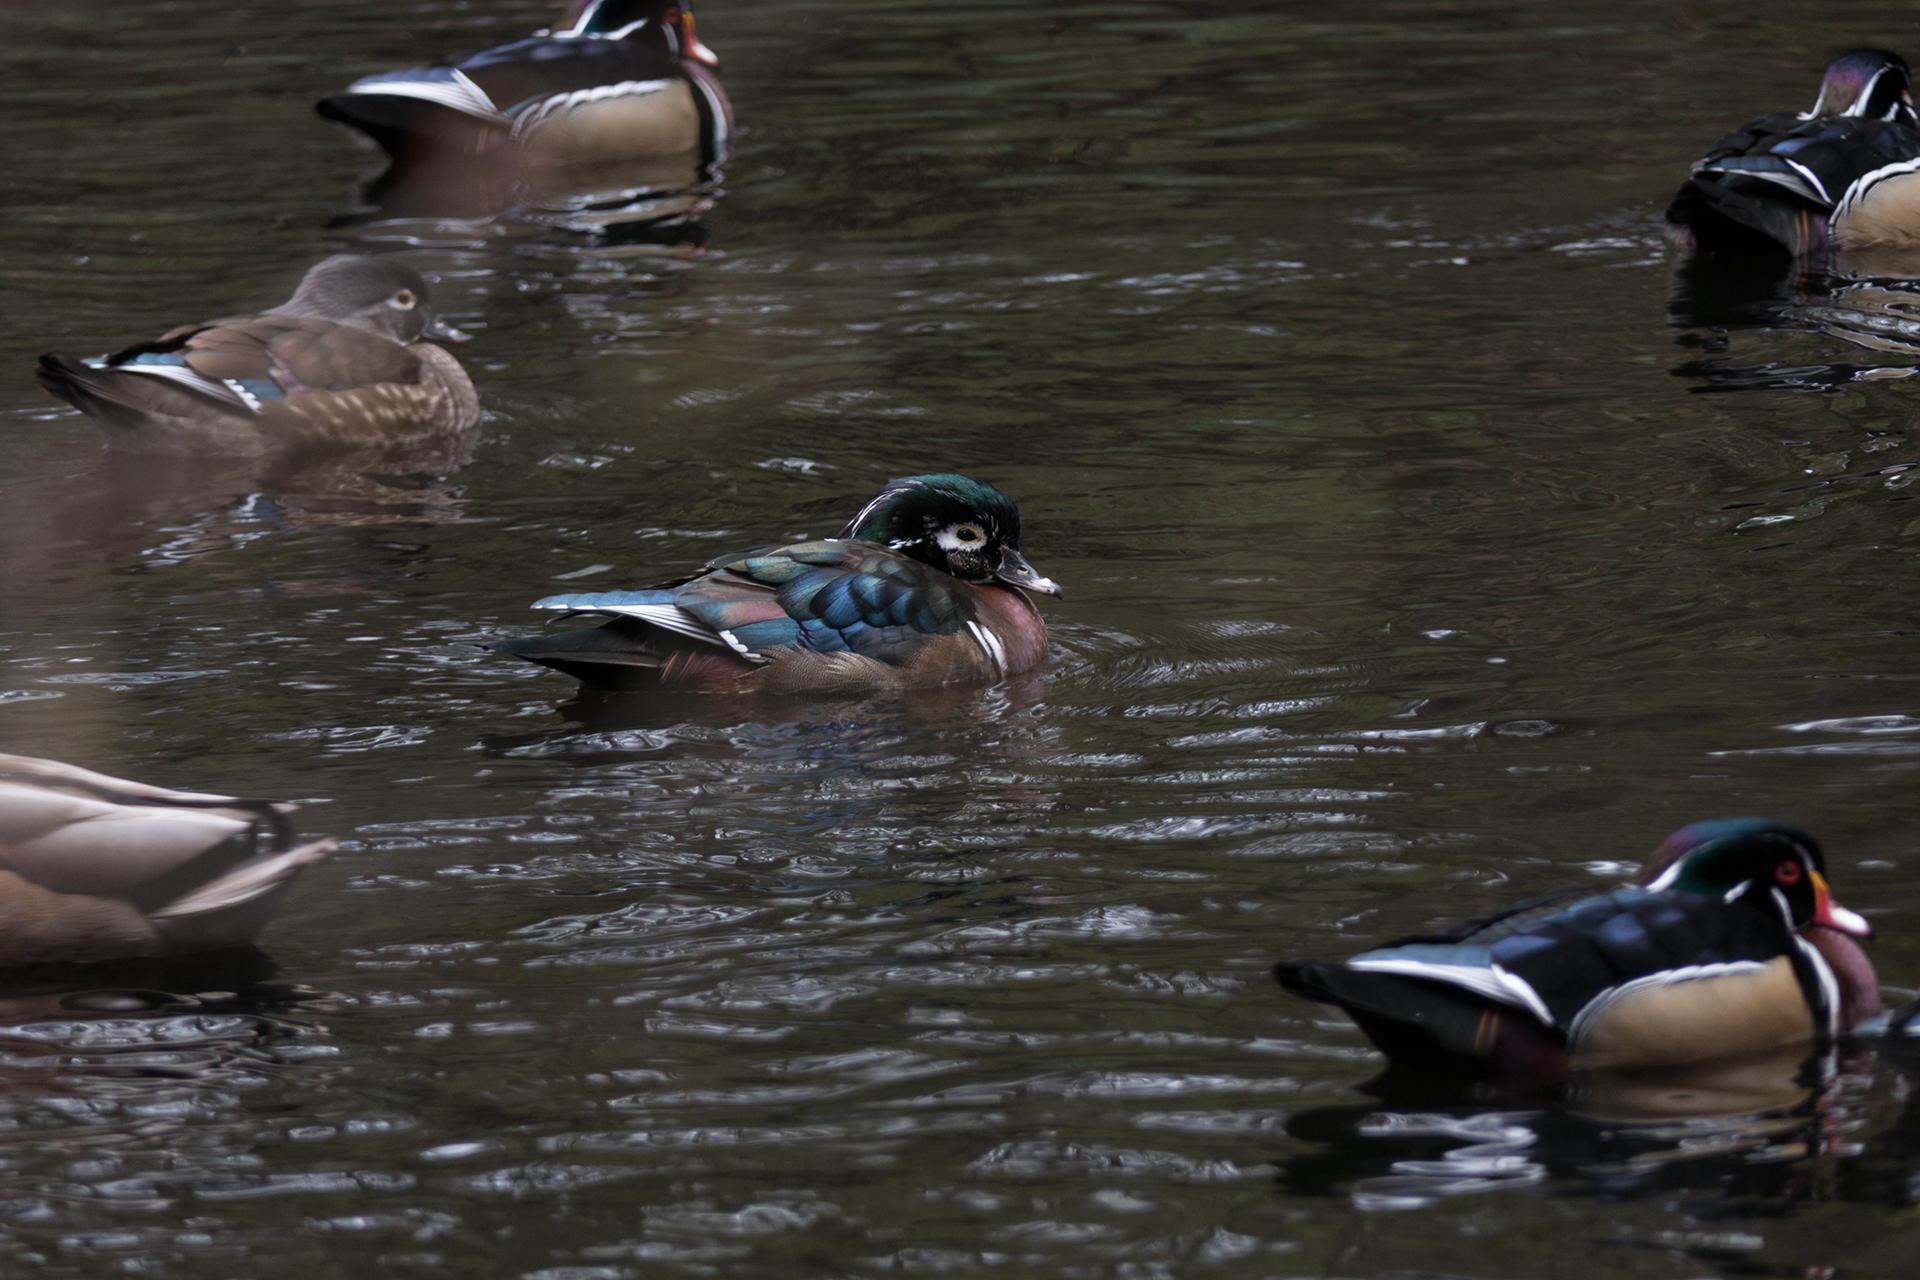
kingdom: Animalia
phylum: Chordata
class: Aves
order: Anseriformes
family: Anatidae
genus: Aix
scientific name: Aix sponsa
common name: Wood duck
